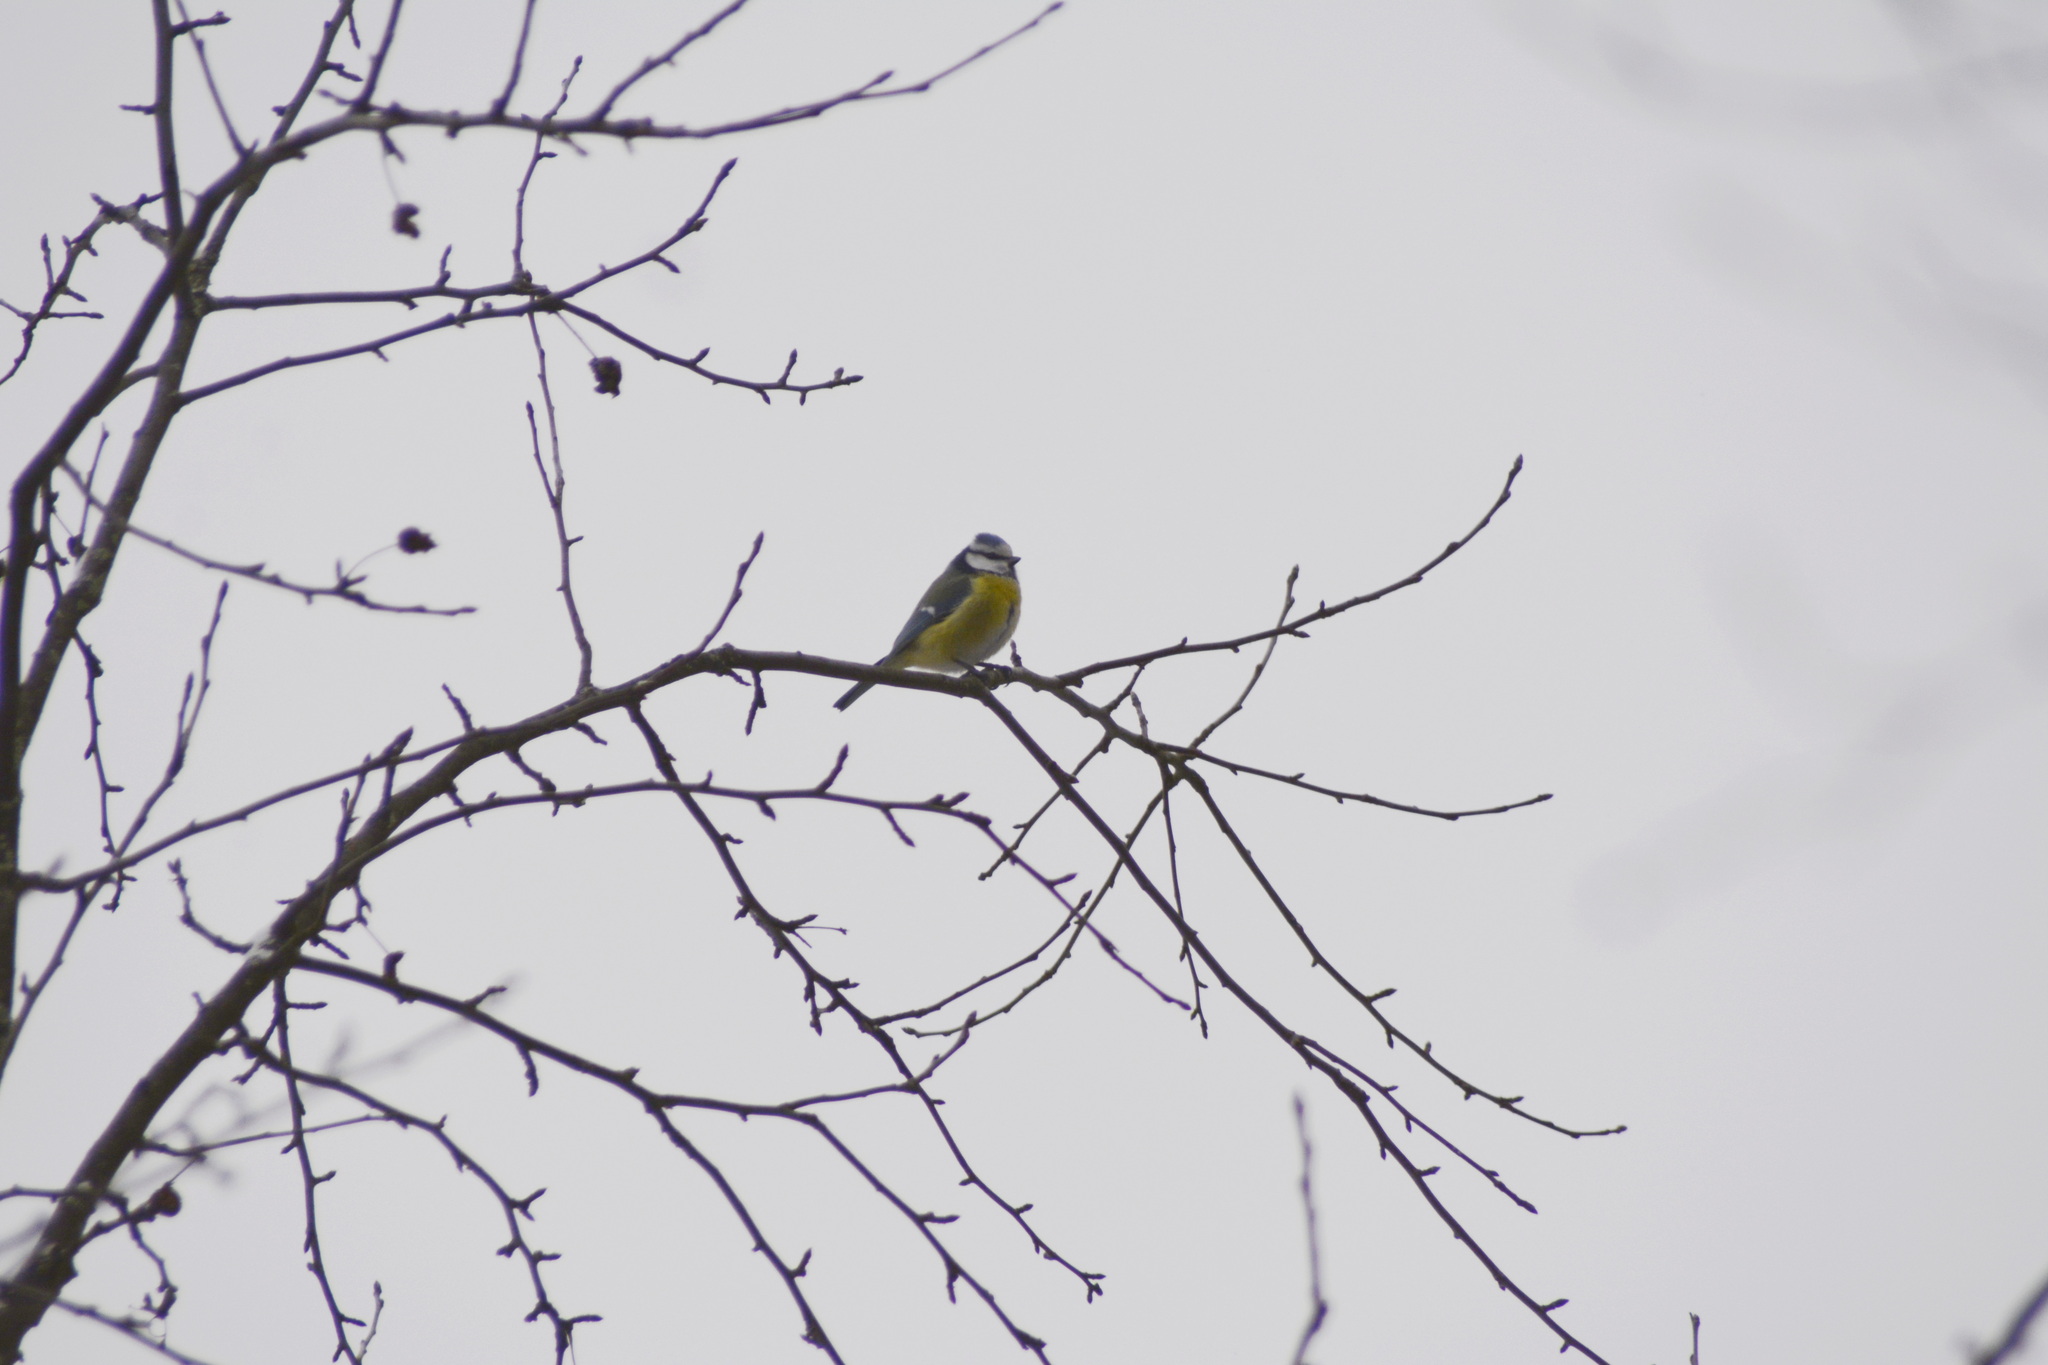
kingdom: Animalia
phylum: Chordata
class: Aves
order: Passeriformes
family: Paridae
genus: Cyanistes
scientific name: Cyanistes caeruleus
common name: Eurasian blue tit
